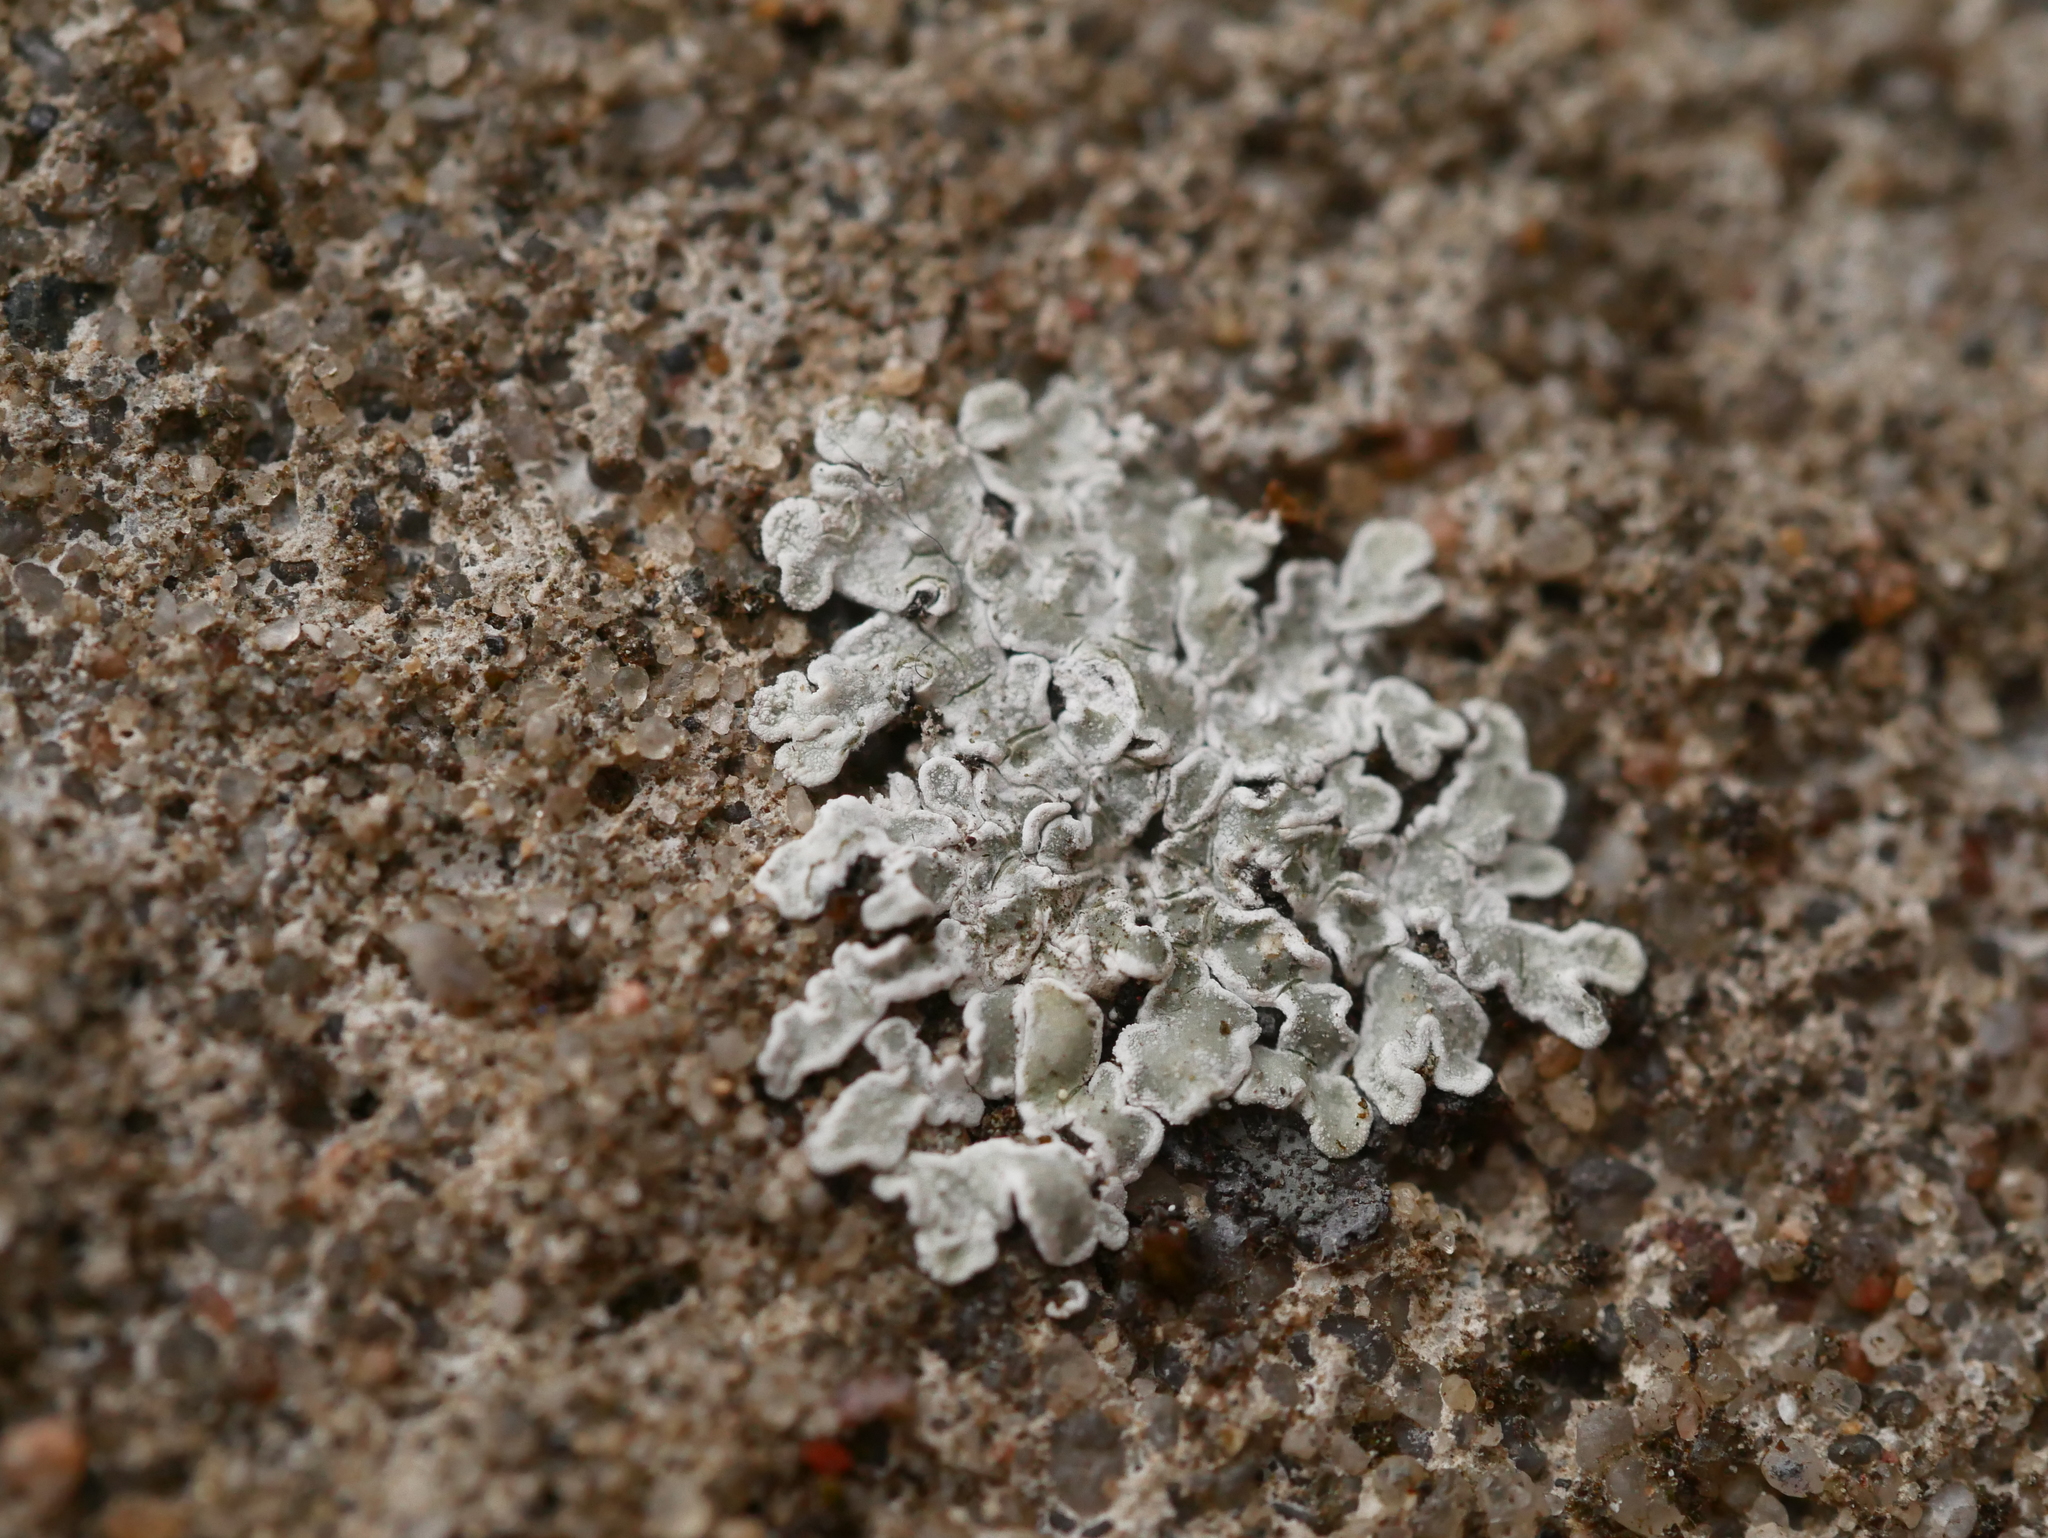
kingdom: Fungi
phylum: Ascomycota
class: Lecanoromycetes
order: Lecanorales
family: Lecanoraceae
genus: Protoparmeliopsis
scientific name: Protoparmeliopsis muralis
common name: Stonewall rim lichen
